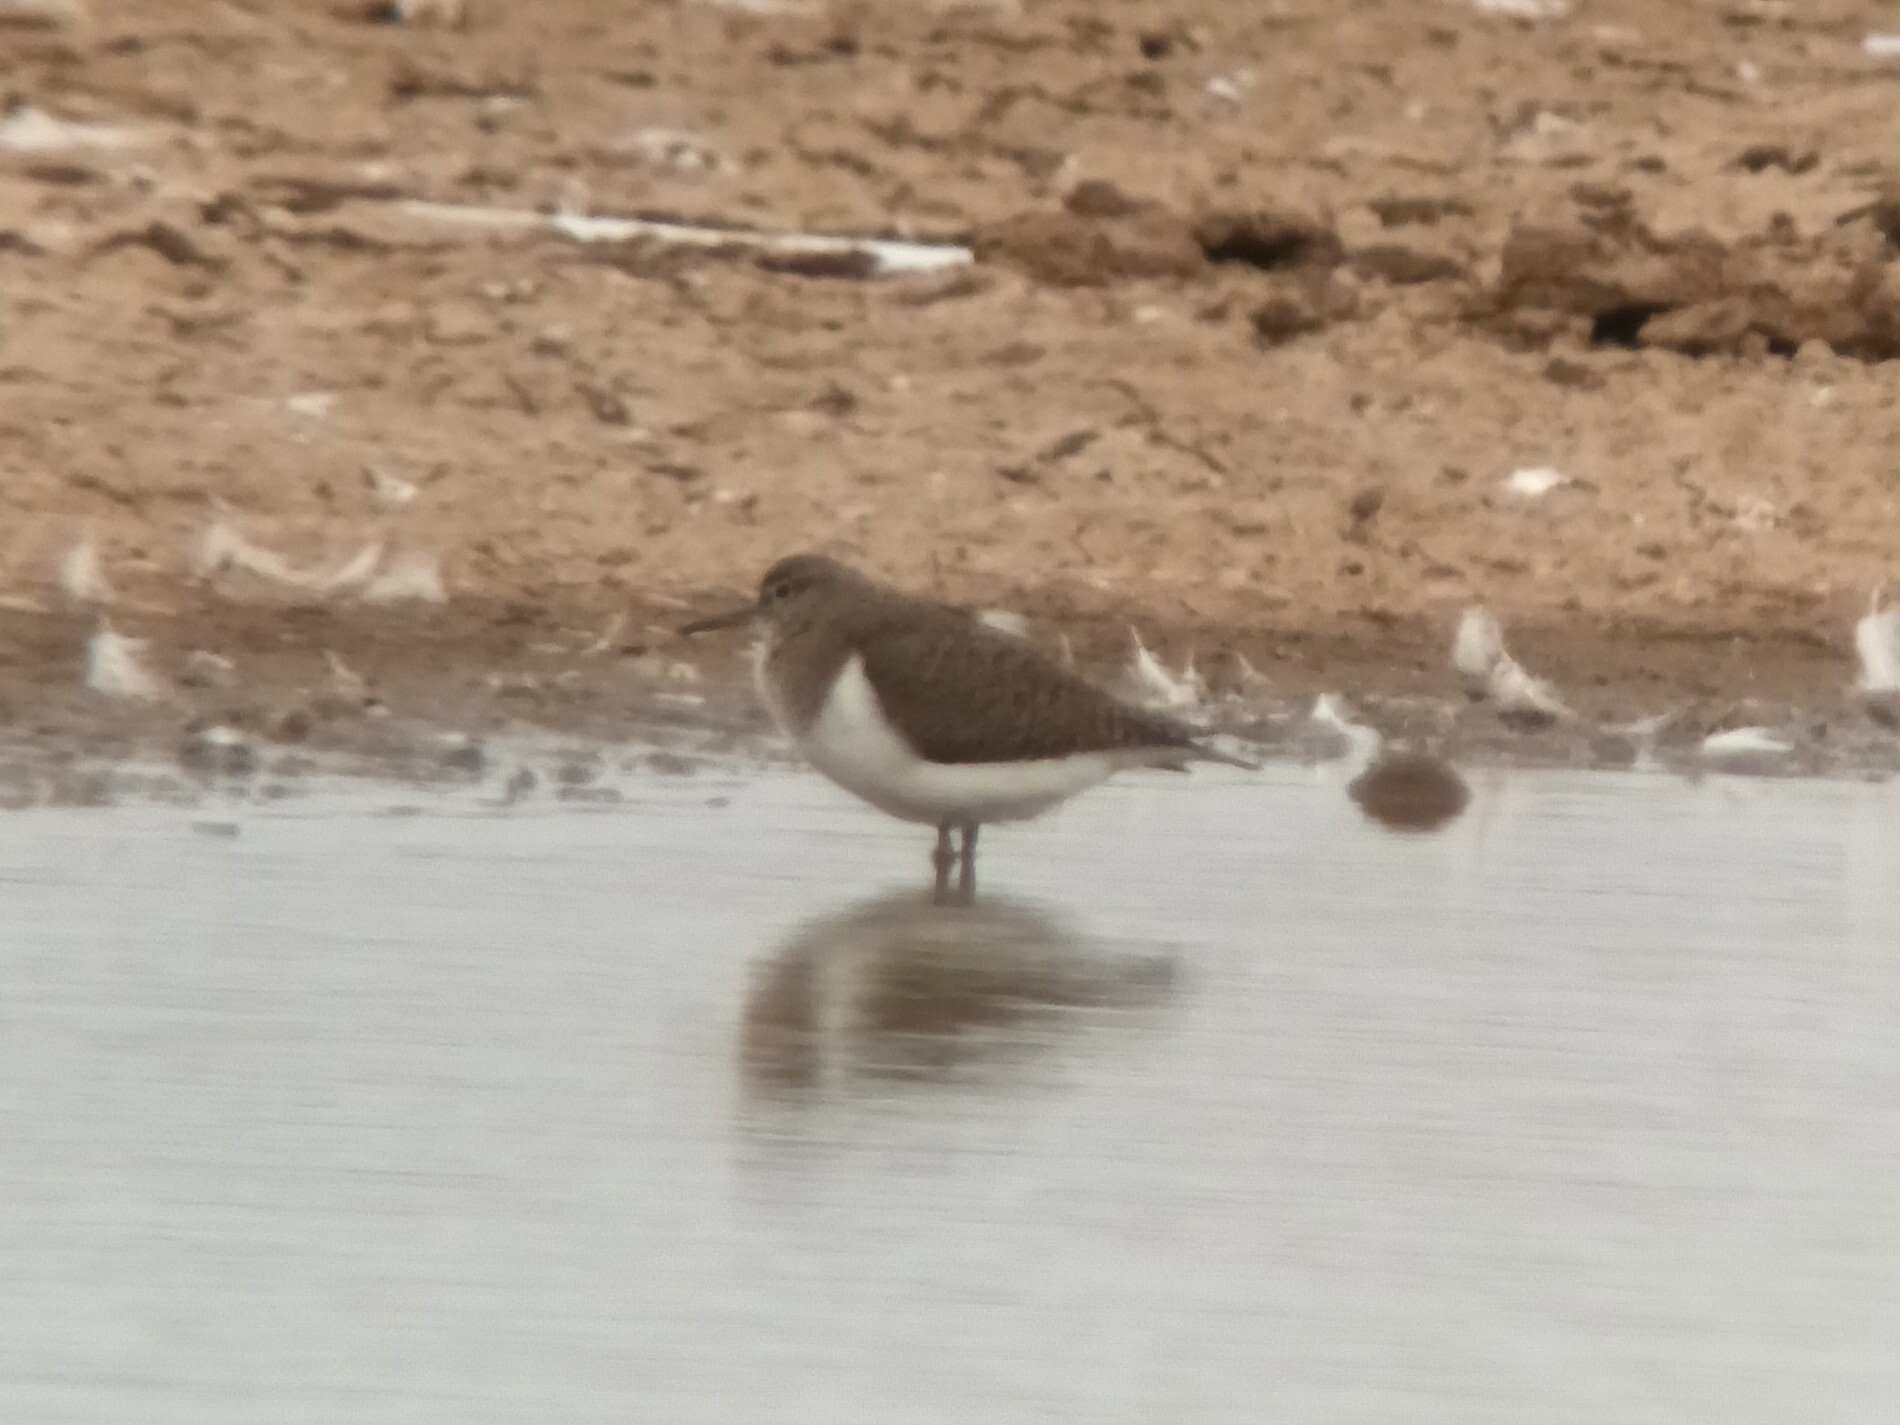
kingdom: Animalia
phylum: Chordata
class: Aves
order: Charadriiformes
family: Scolopacidae
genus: Actitis
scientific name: Actitis hypoleucos
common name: Common sandpiper
